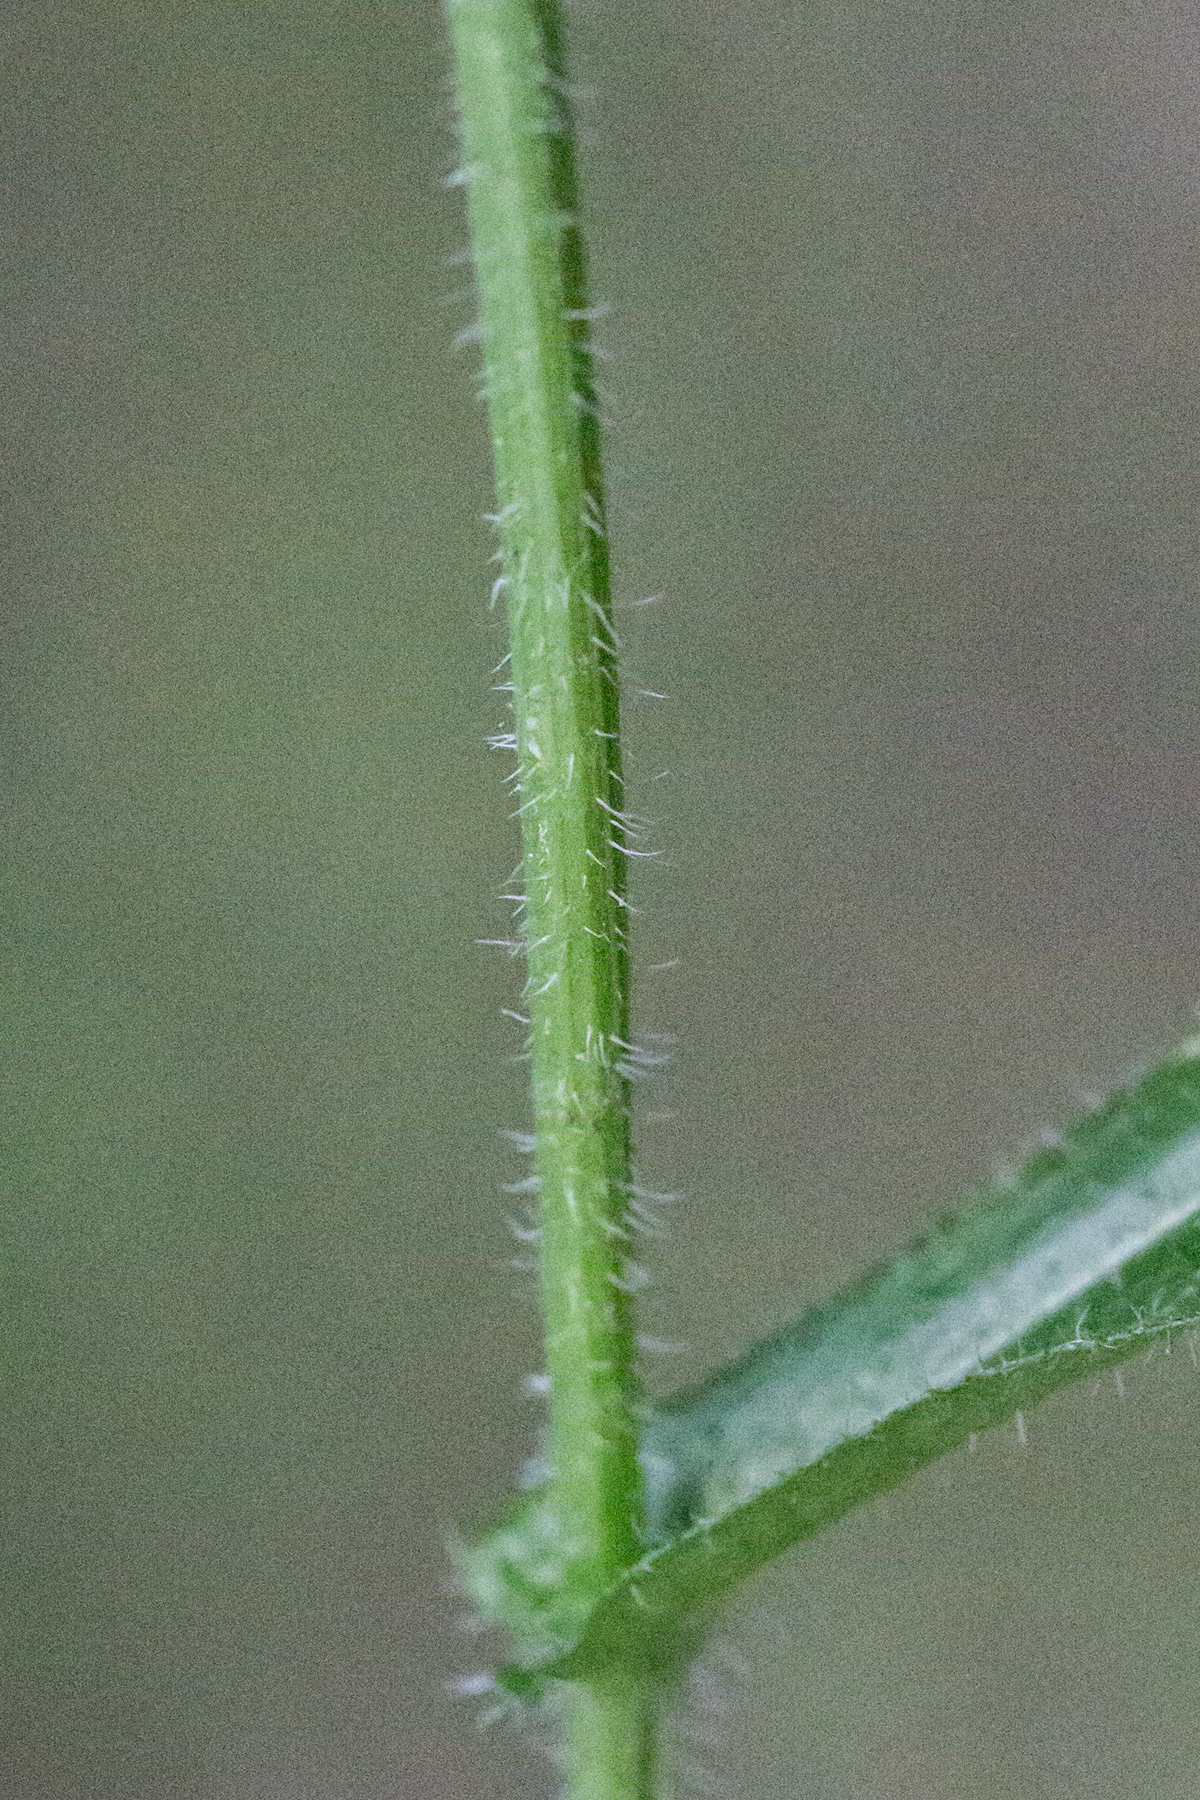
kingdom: Plantae
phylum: Tracheophyta
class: Magnoliopsida
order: Asterales
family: Asteraceae
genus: Erigeron
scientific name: Erigeron philadelphicus
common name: Robin's-plantain
